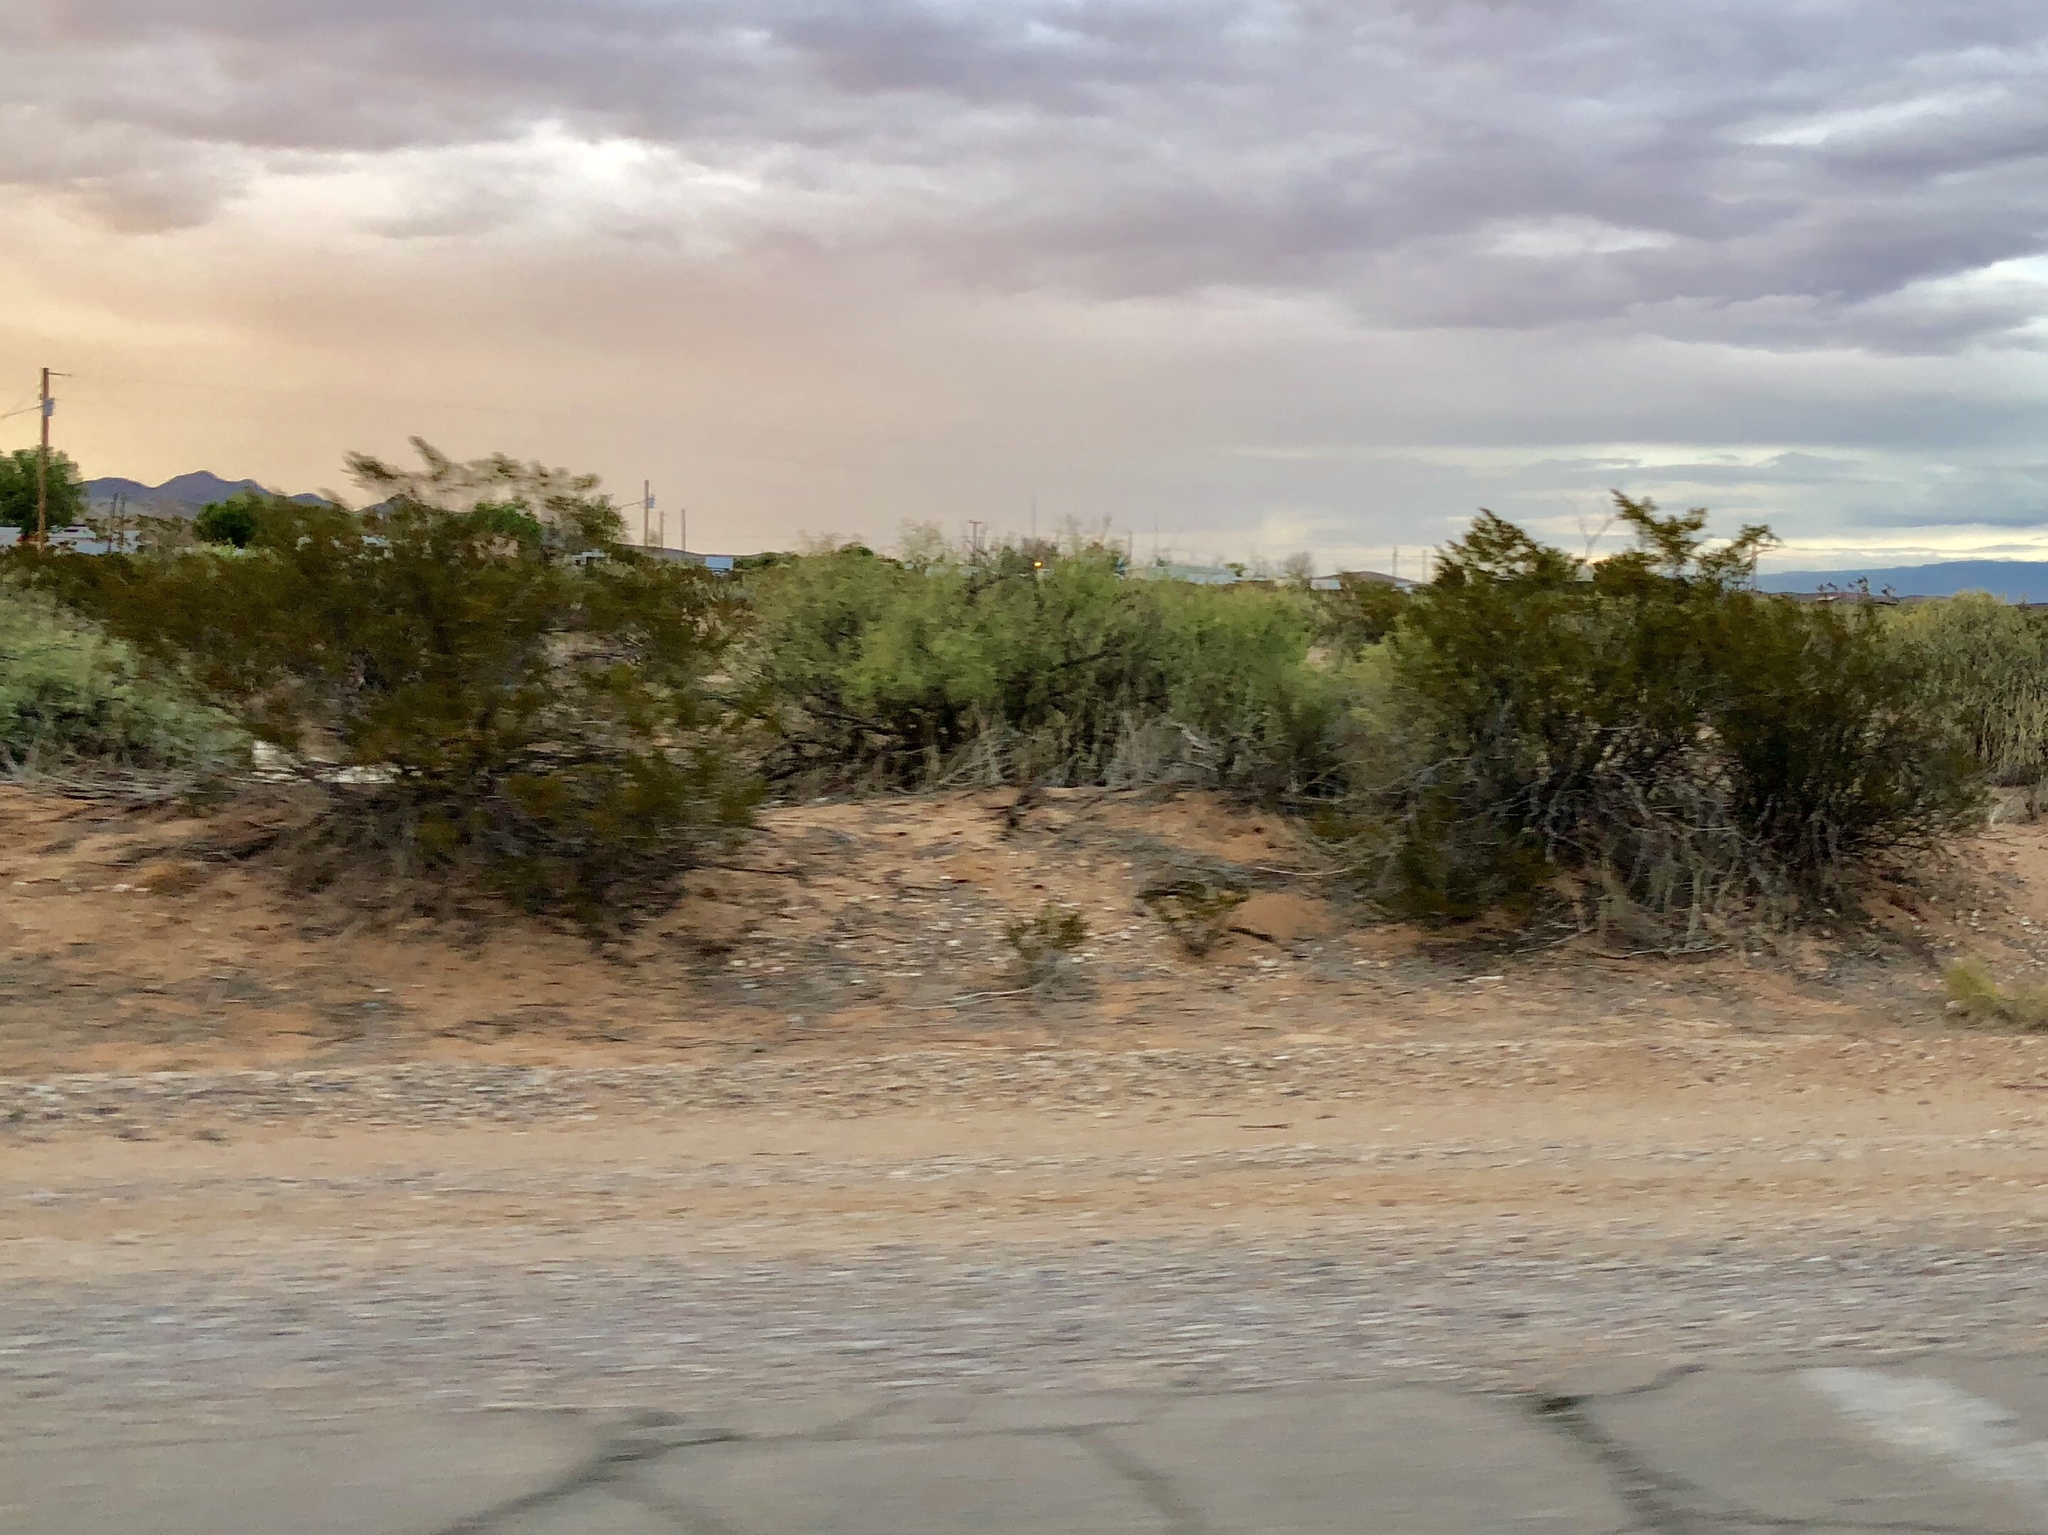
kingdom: Plantae
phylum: Tracheophyta
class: Magnoliopsida
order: Zygophyllales
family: Zygophyllaceae
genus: Larrea
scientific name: Larrea tridentata
